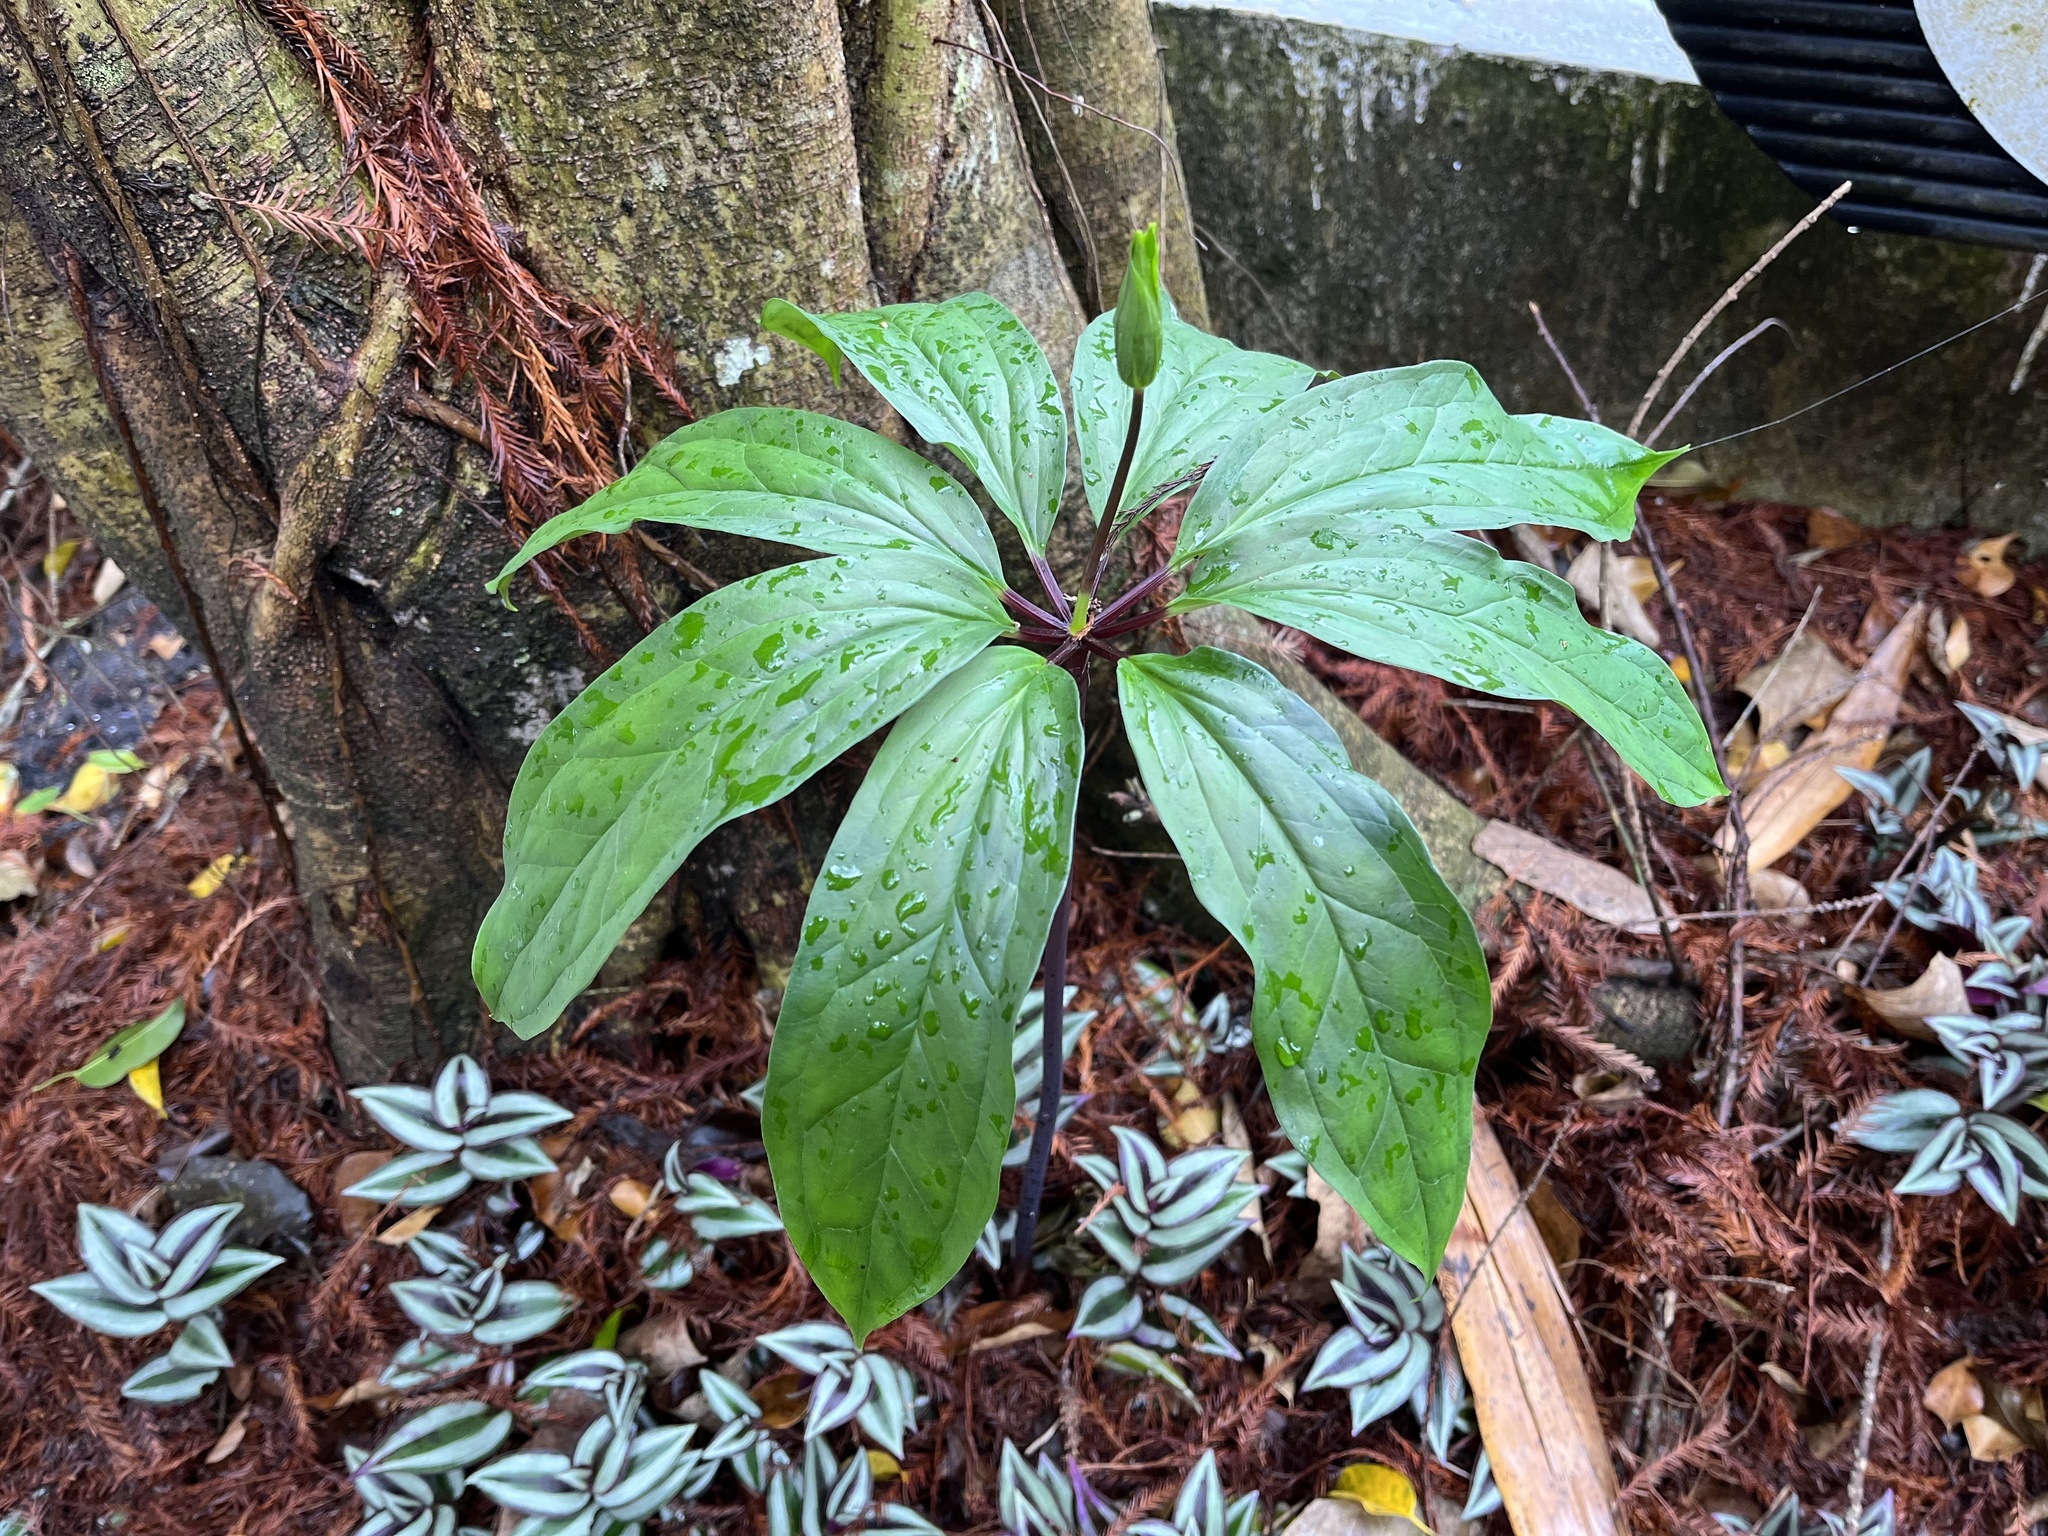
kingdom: Plantae
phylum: Tracheophyta
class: Liliopsida
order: Liliales
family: Melanthiaceae
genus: Paris
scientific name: Paris polyphylla
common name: Love apple
